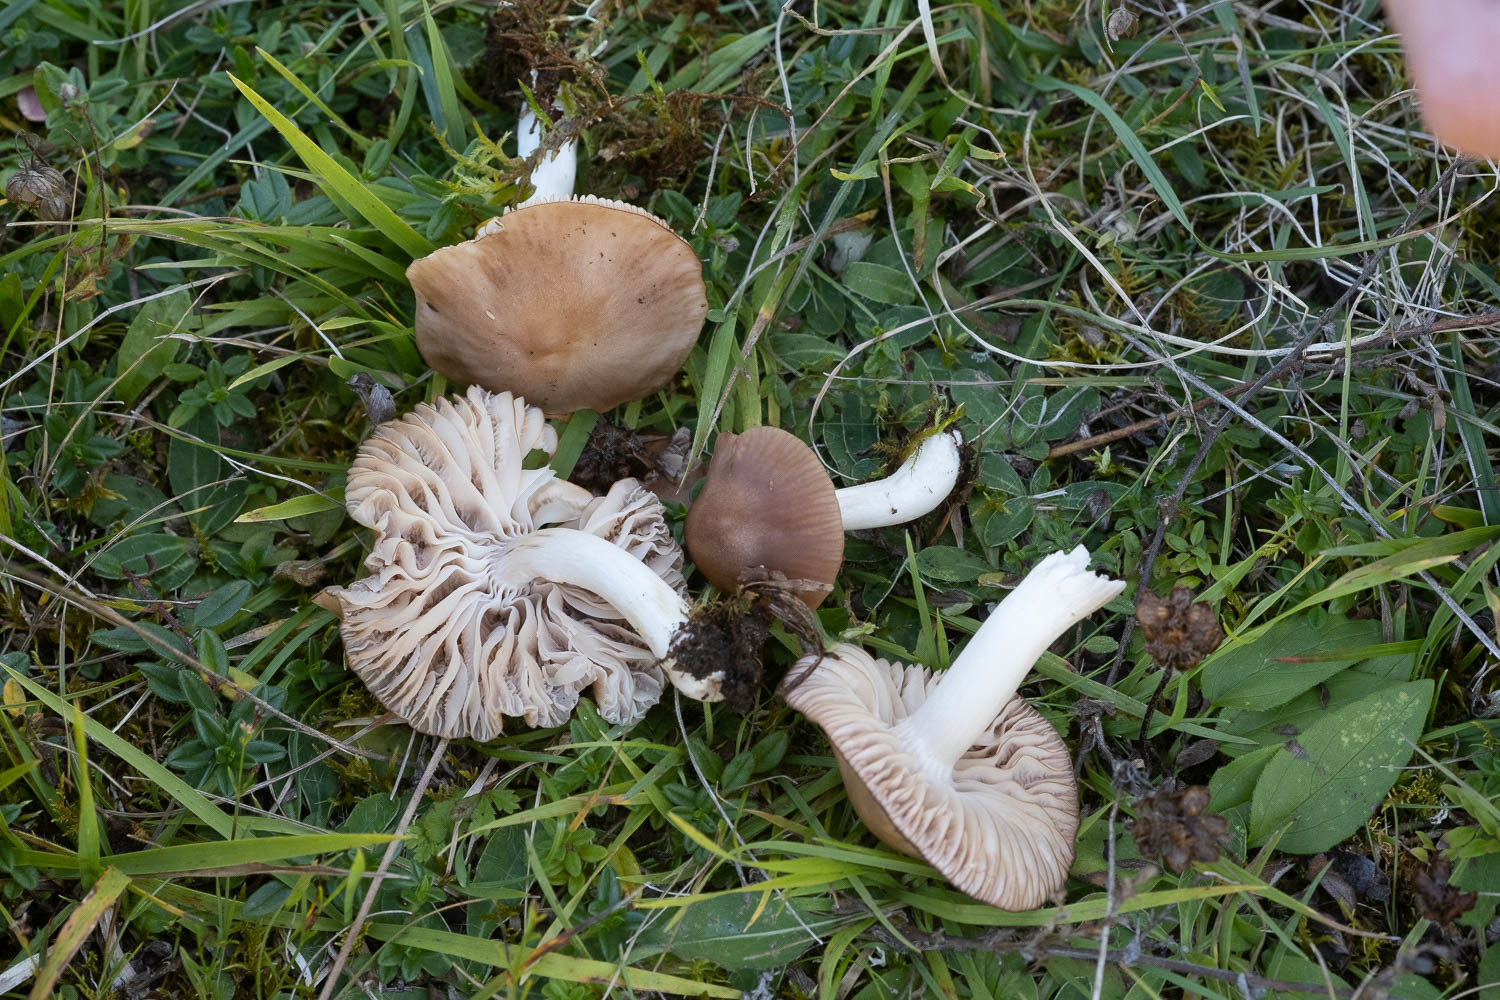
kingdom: Fungi
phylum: Basidiomycota
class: Agaricomycetes
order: Agaricales
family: Hygrophoraceae
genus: Cuphophyllus
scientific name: Cuphophyllus colemannianus
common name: Toasted waxcap
